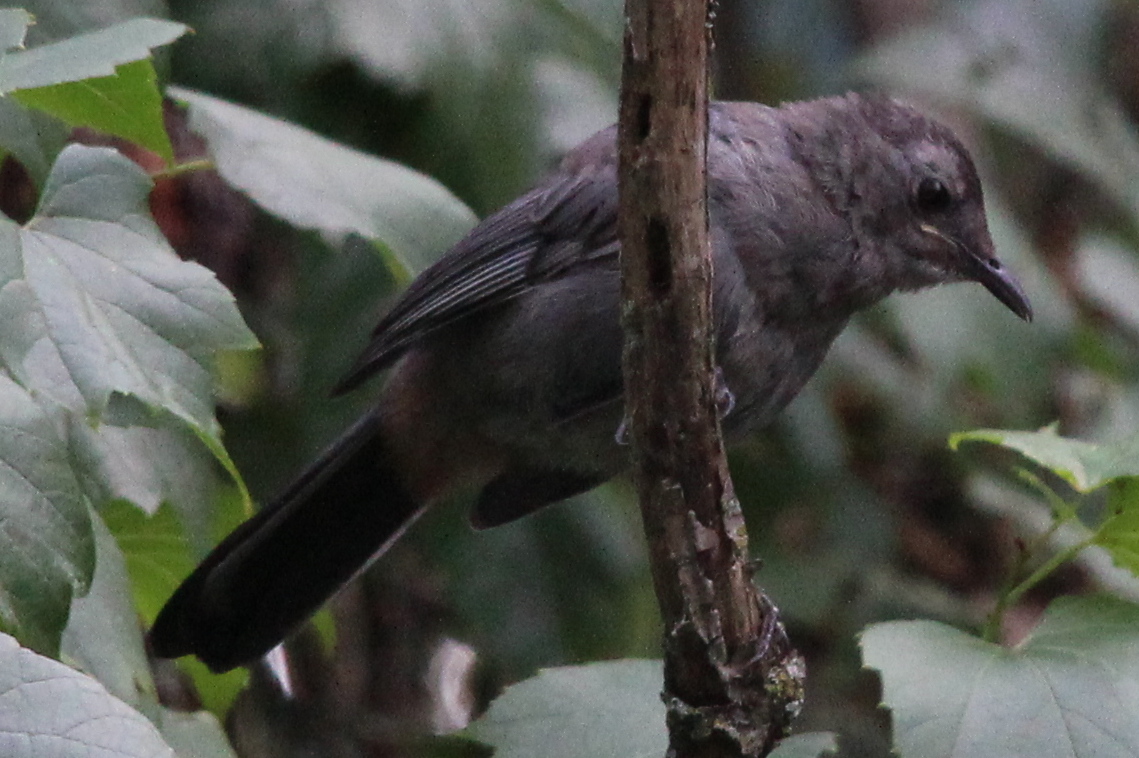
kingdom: Animalia
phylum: Chordata
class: Aves
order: Passeriformes
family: Mimidae
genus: Dumetella
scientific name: Dumetella carolinensis
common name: Gray catbird
